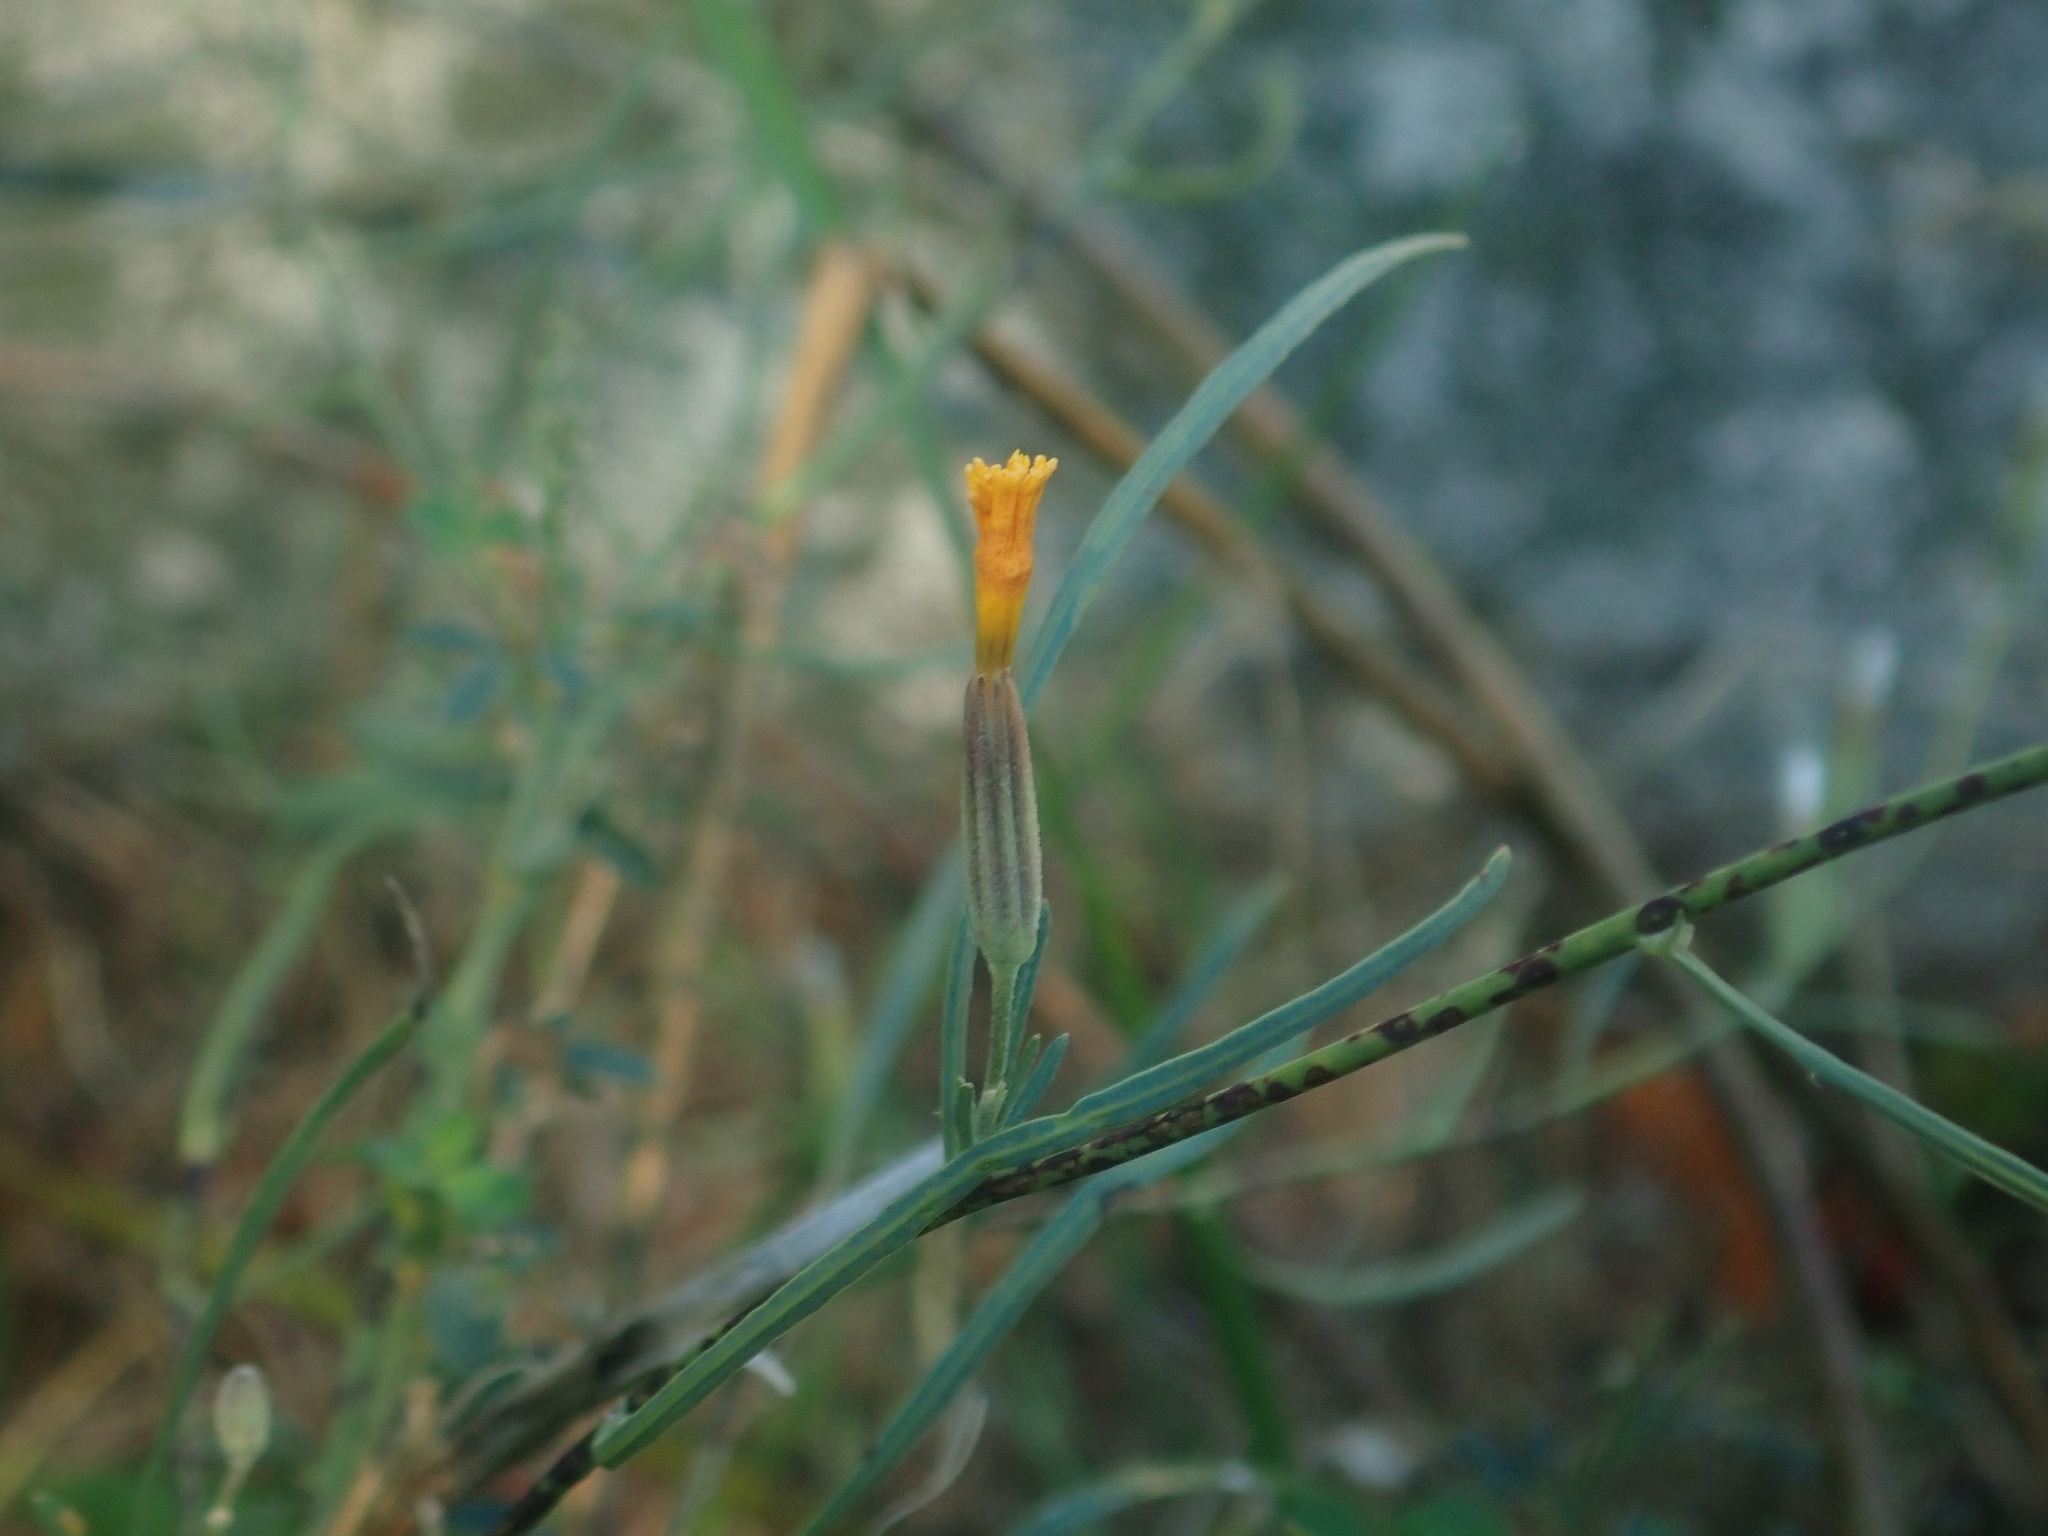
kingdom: Plantae
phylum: Tracheophyta
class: Magnoliopsida
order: Asterales
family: Asteraceae
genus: Chondrilla
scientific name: Chondrilla juncea
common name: Skeleton weed
